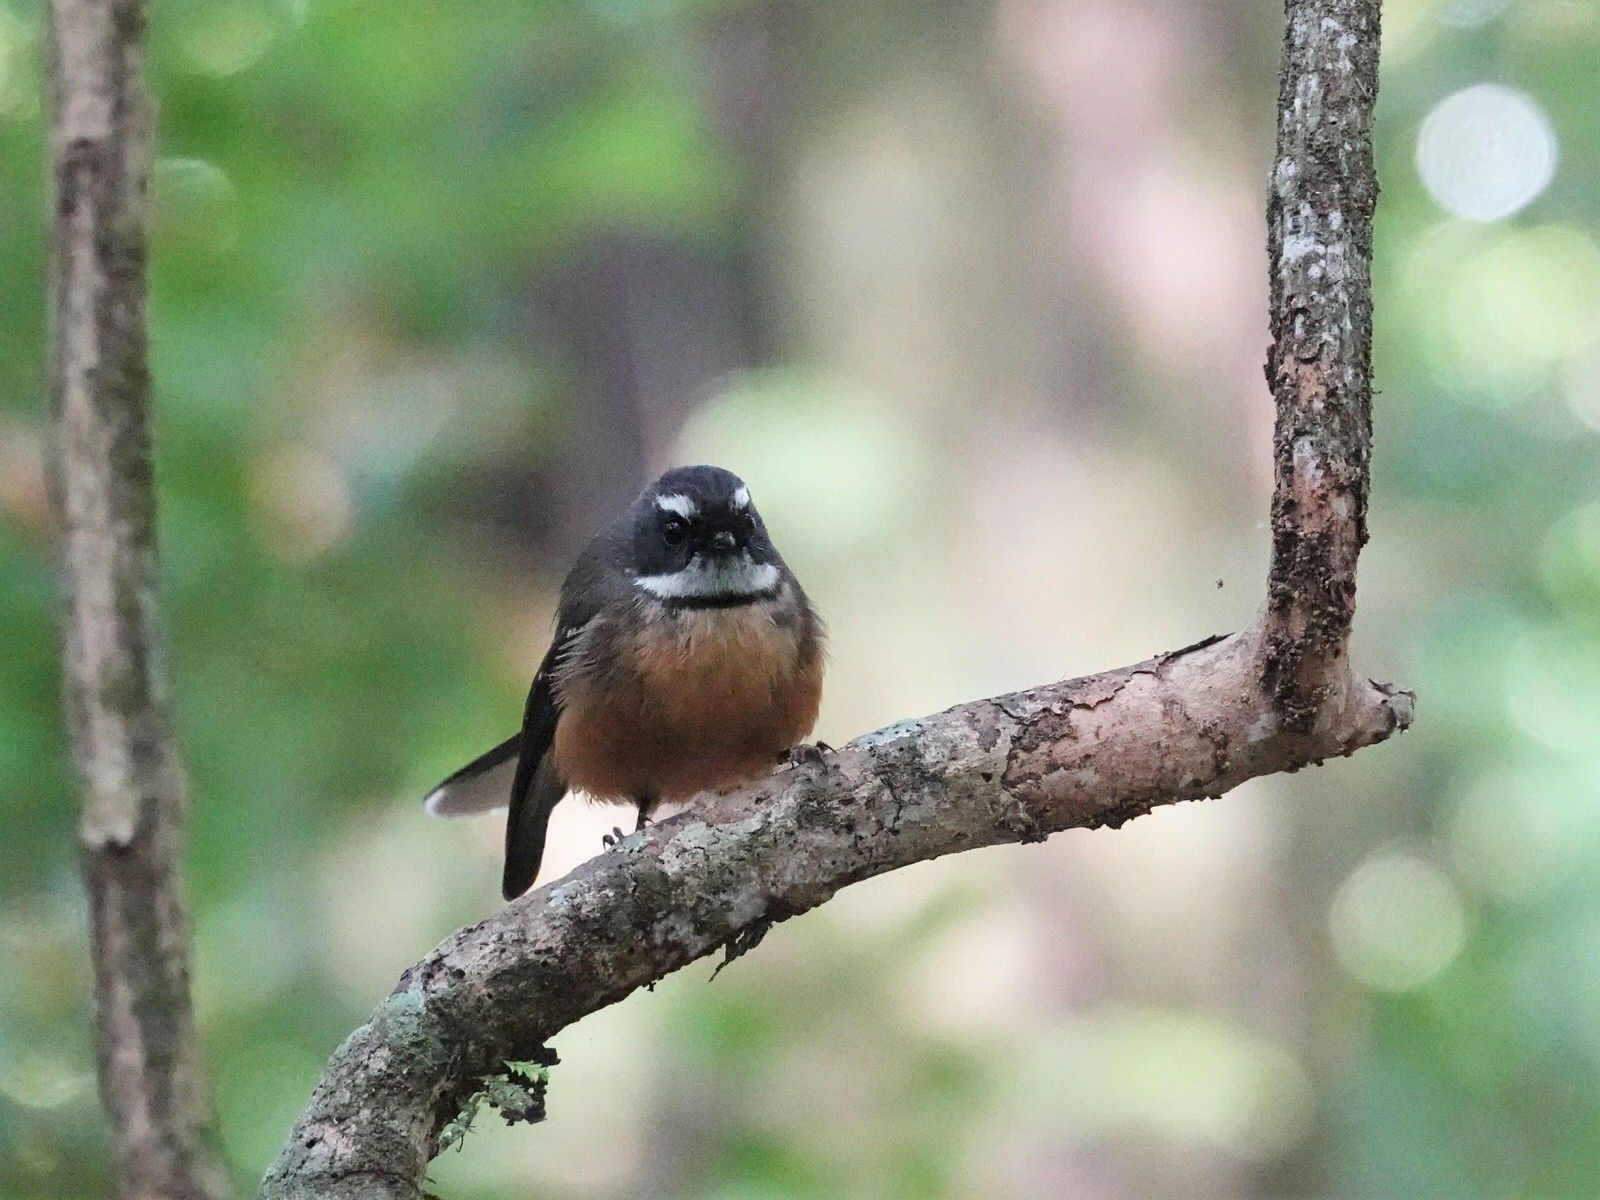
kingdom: Animalia
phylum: Chordata
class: Aves
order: Passeriformes
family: Rhipiduridae
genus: Rhipidura
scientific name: Rhipidura fuliginosa
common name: New zealand fantail
